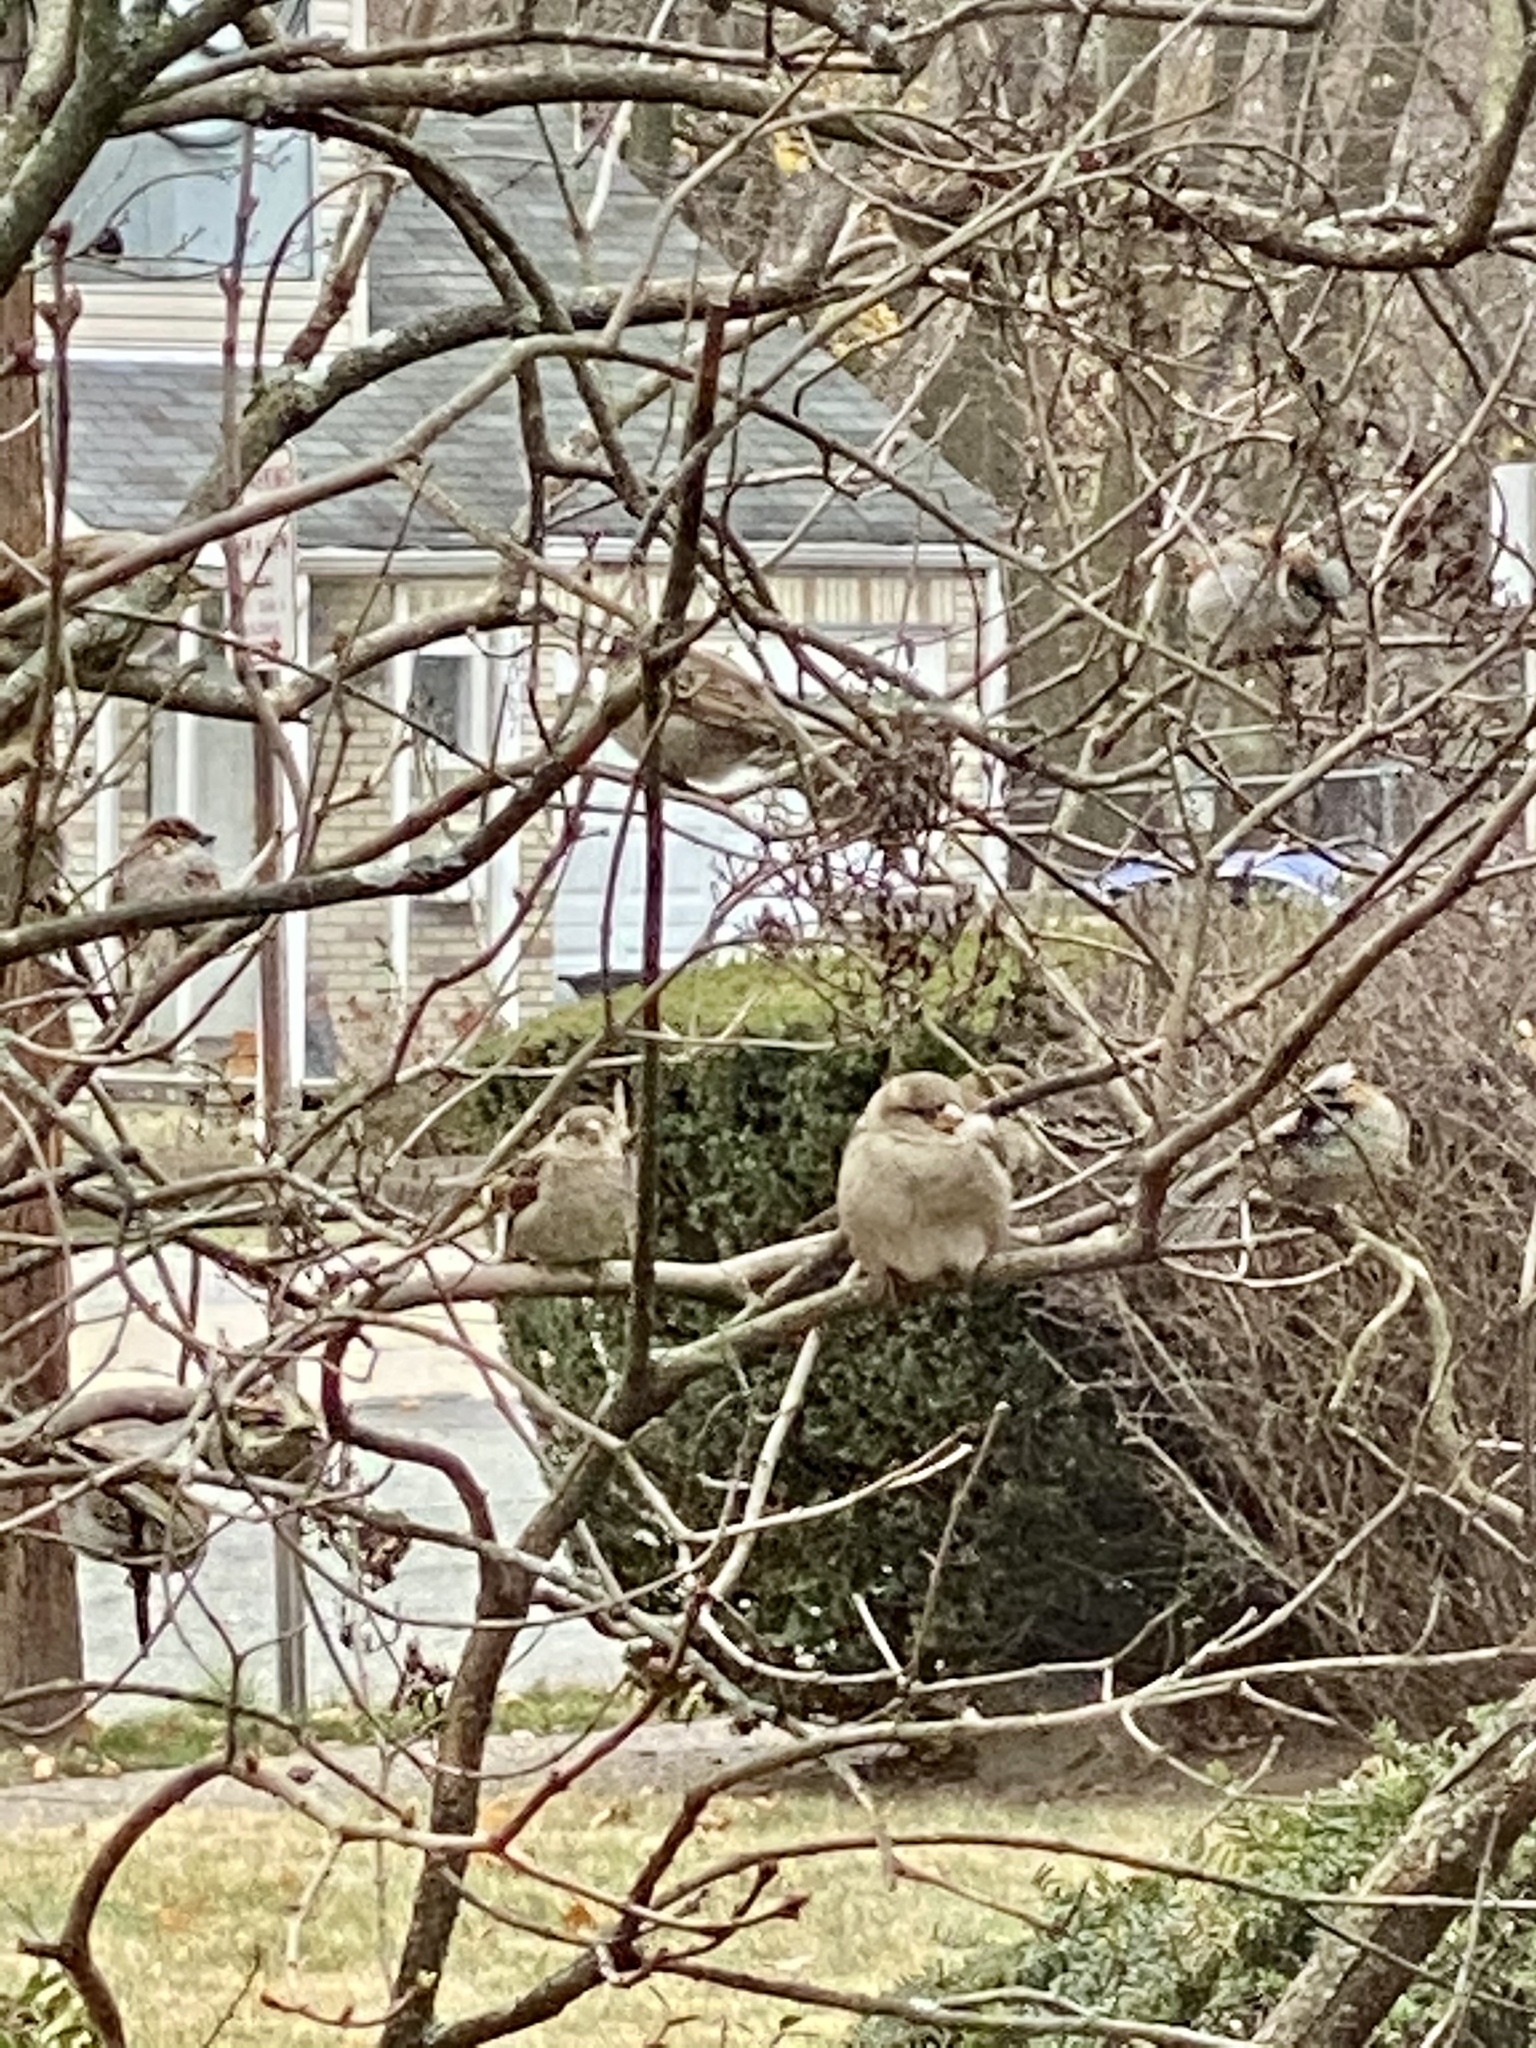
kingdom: Animalia
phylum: Chordata
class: Aves
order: Passeriformes
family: Passeridae
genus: Passer
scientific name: Passer domesticus
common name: House sparrow
